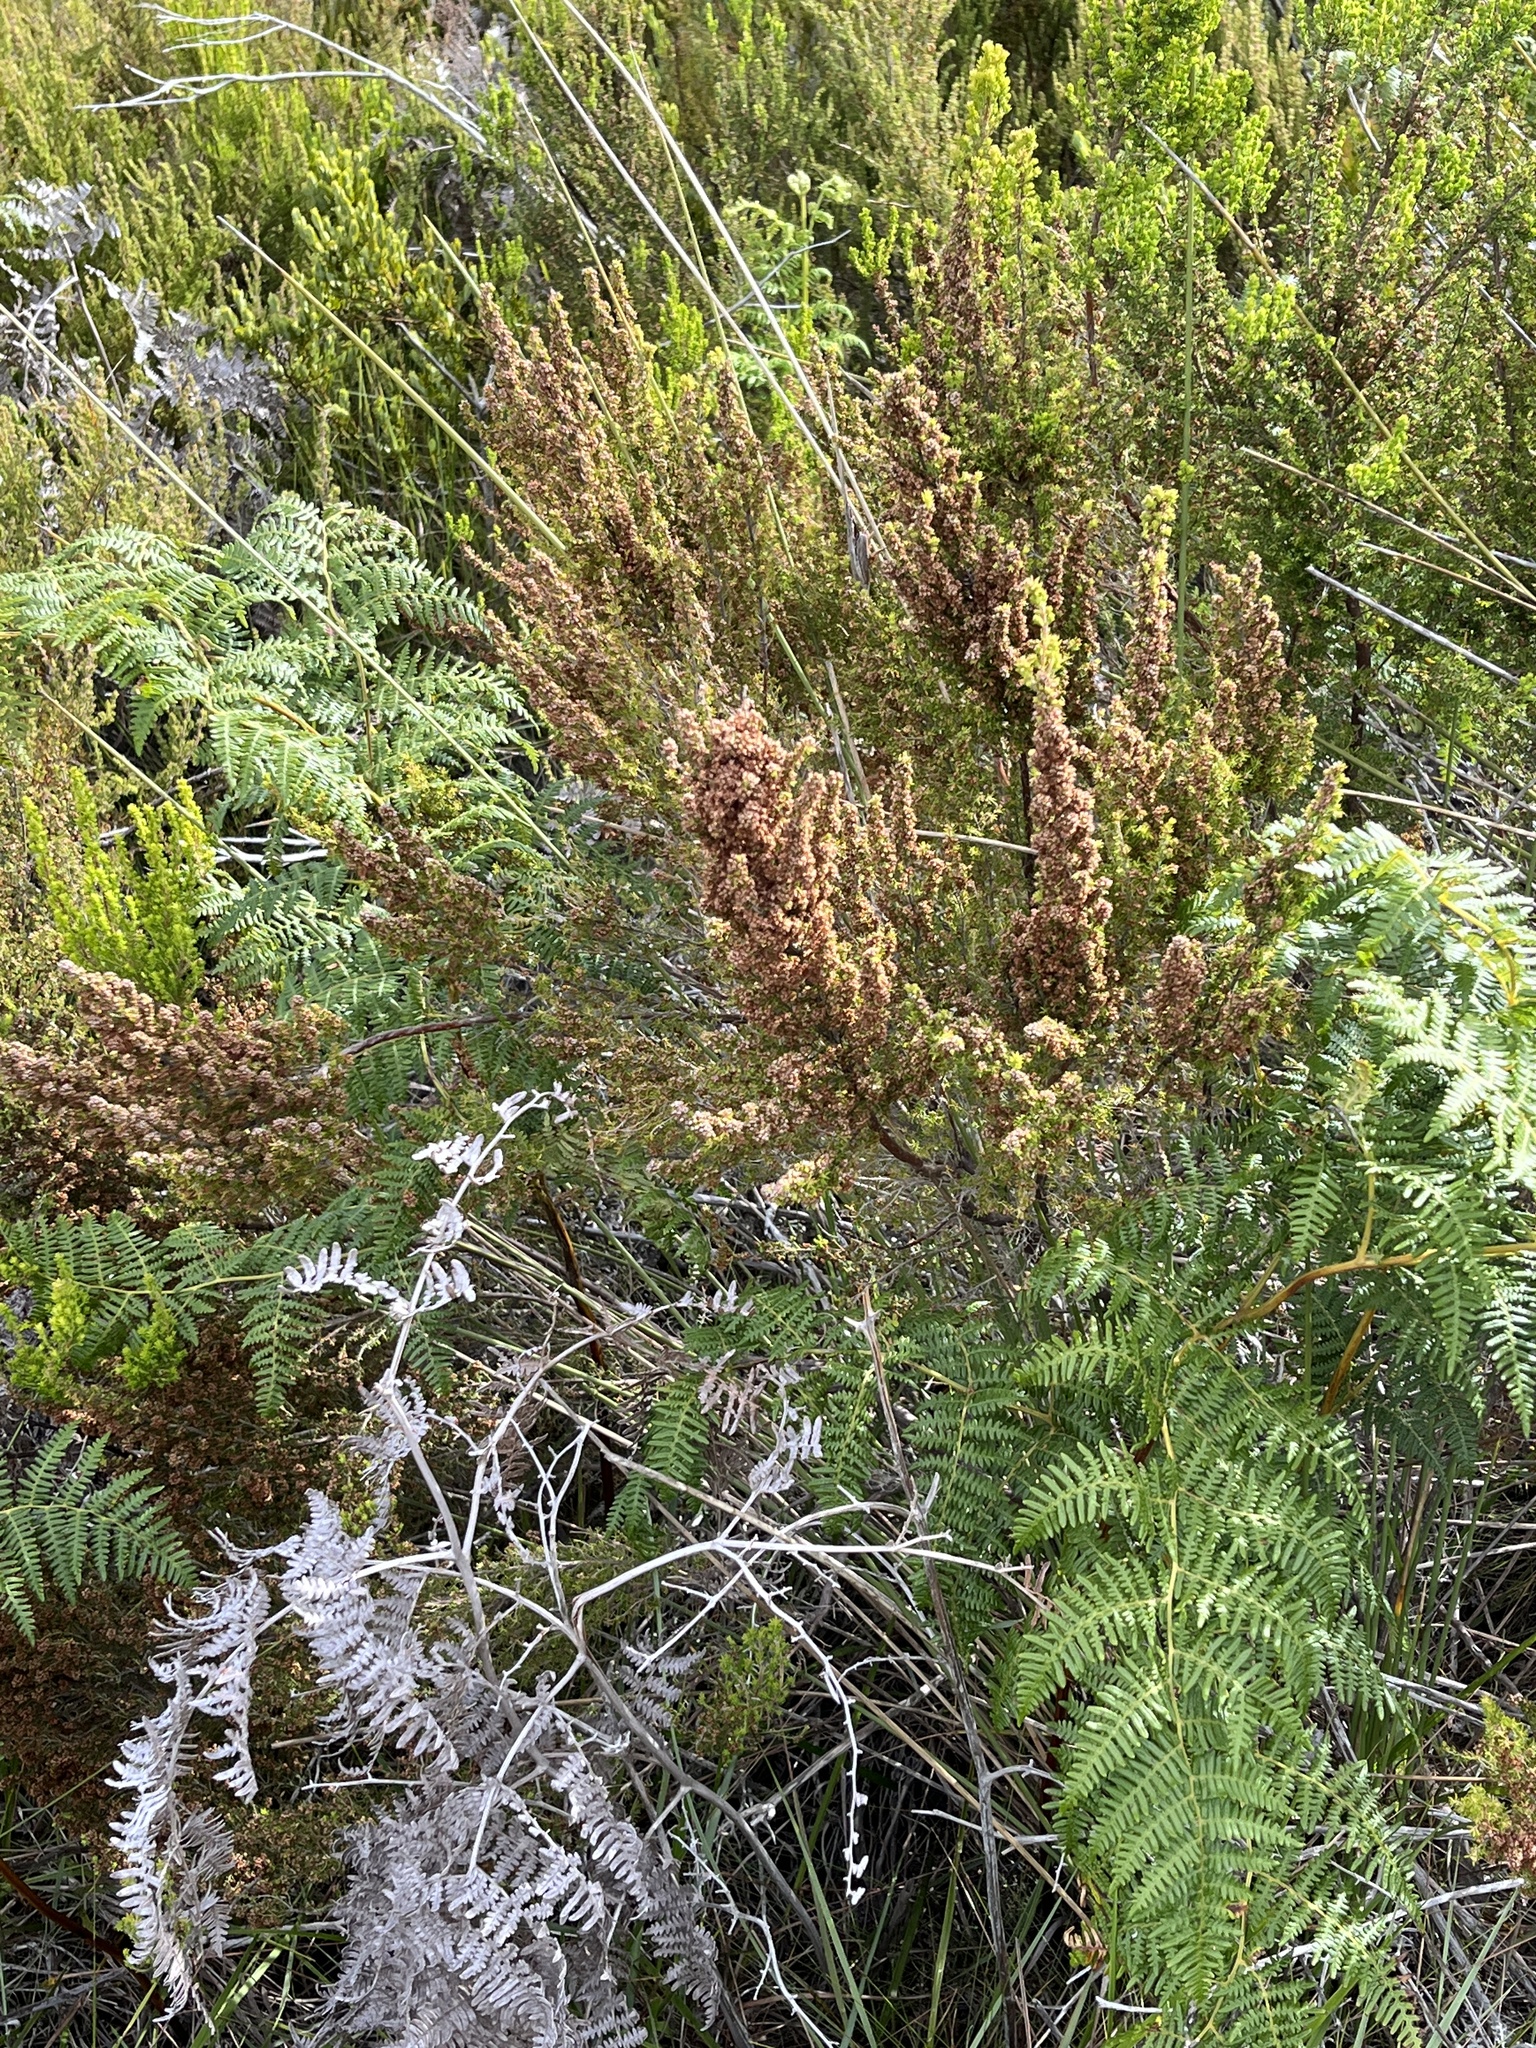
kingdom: Plantae
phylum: Tracheophyta
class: Magnoliopsida
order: Ericales
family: Ericaceae
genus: Erica
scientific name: Erica hispidula
